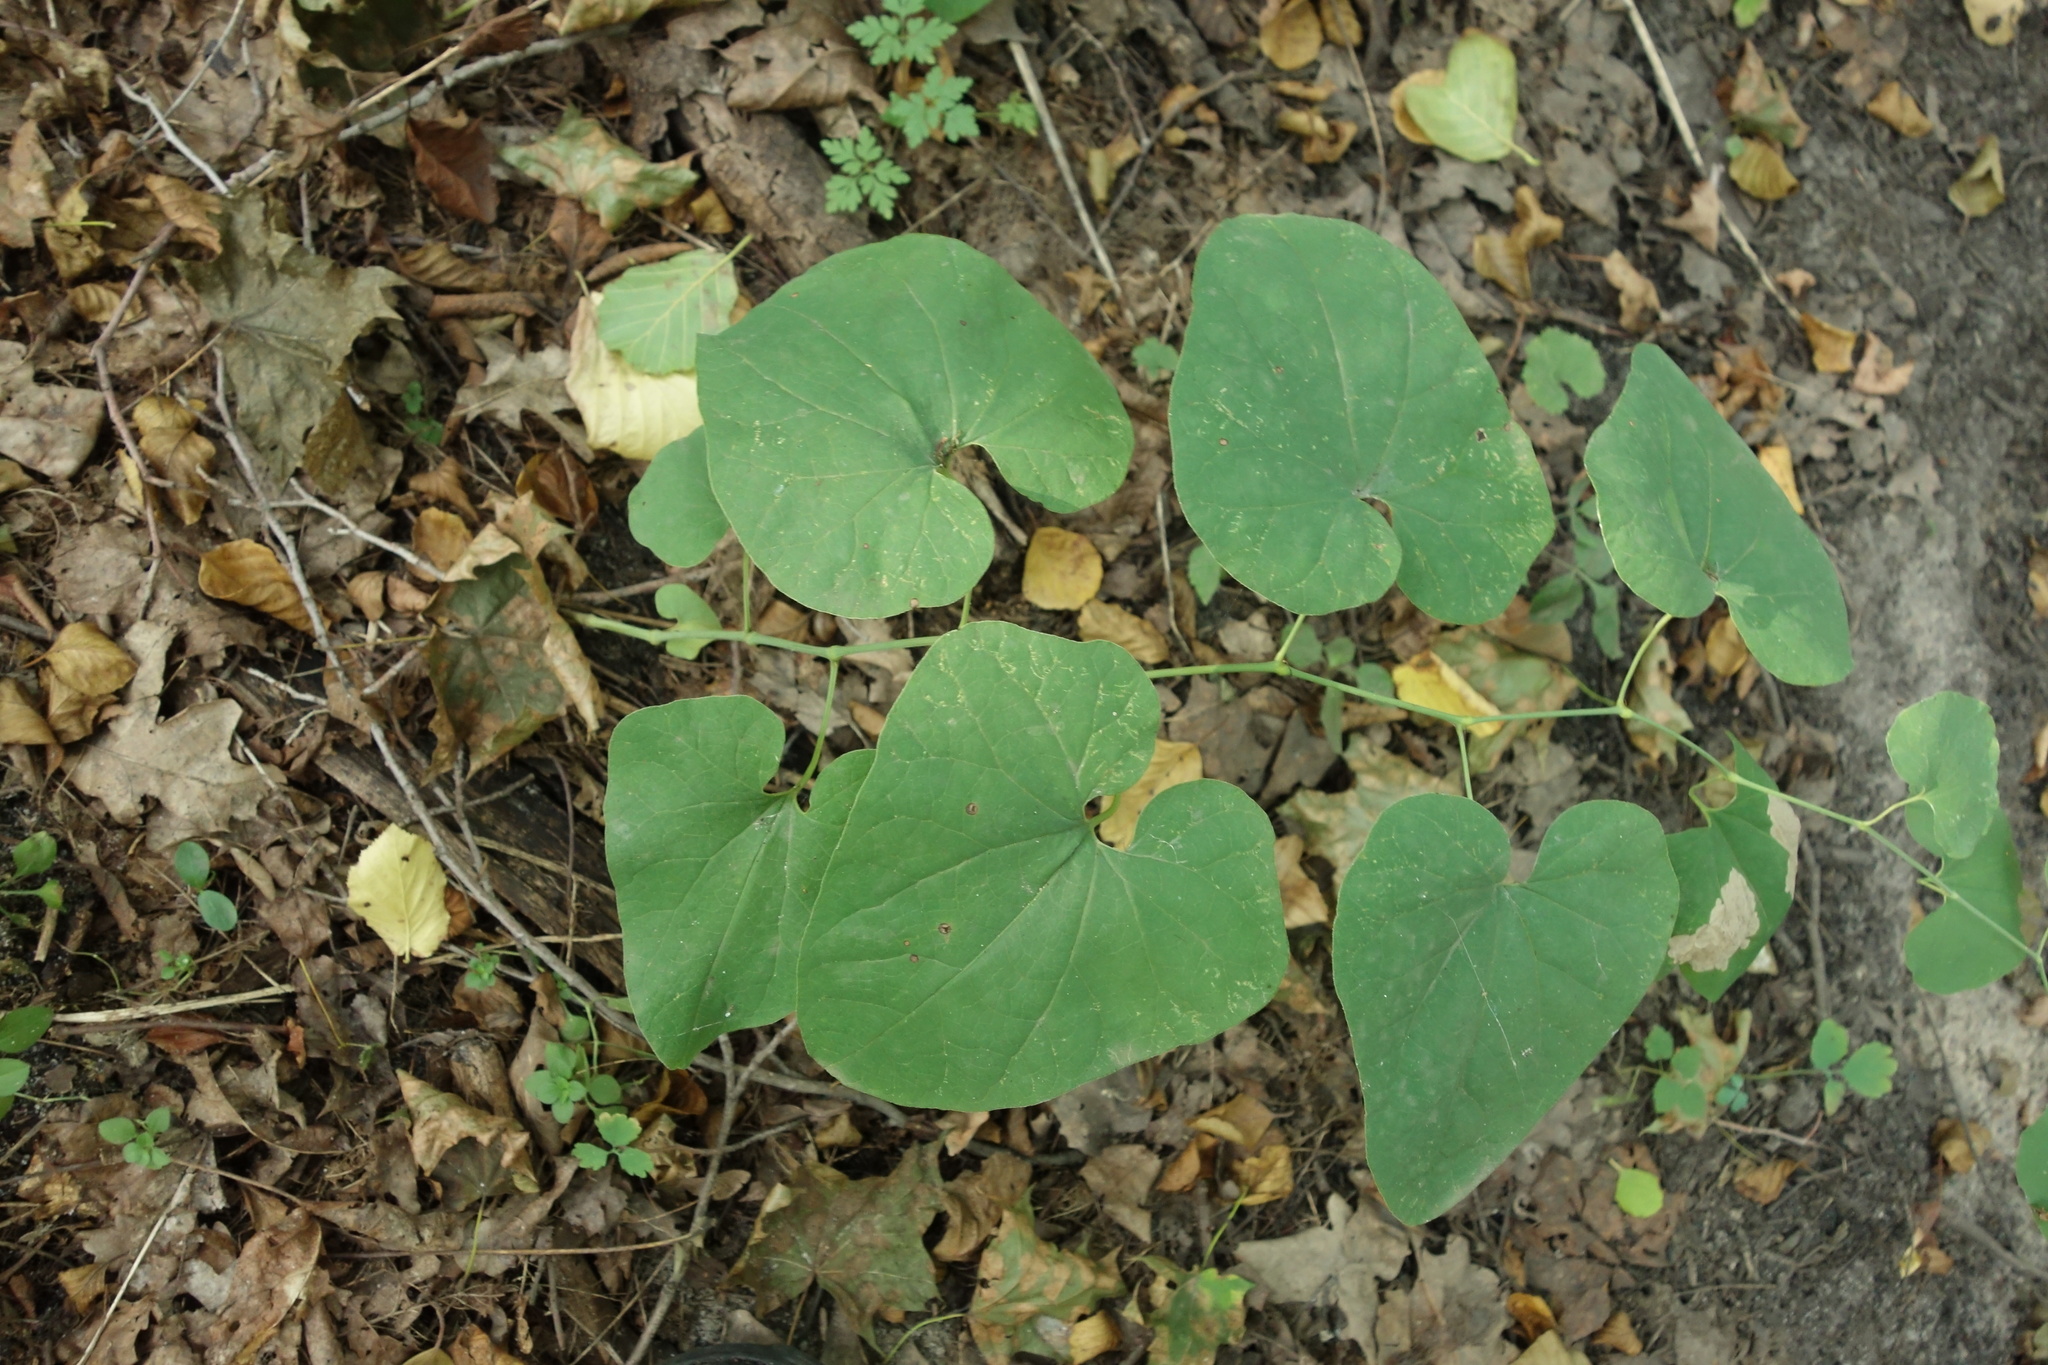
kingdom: Plantae
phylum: Tracheophyta
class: Magnoliopsida
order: Piperales
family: Aristolochiaceae
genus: Aristolochia
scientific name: Aristolochia clematitis
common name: Birthwort
